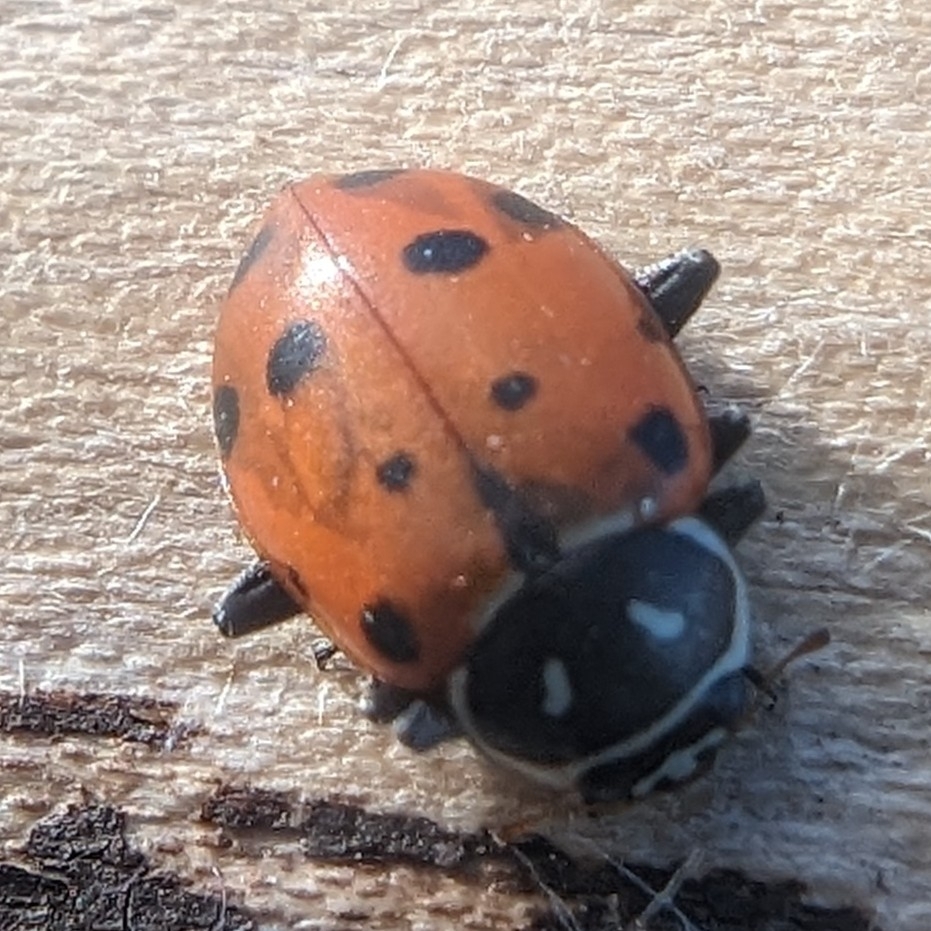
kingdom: Animalia
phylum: Arthropoda
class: Insecta
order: Coleoptera
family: Coccinellidae
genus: Hippodamia
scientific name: Hippodamia convergens
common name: Convergent lady beetle
